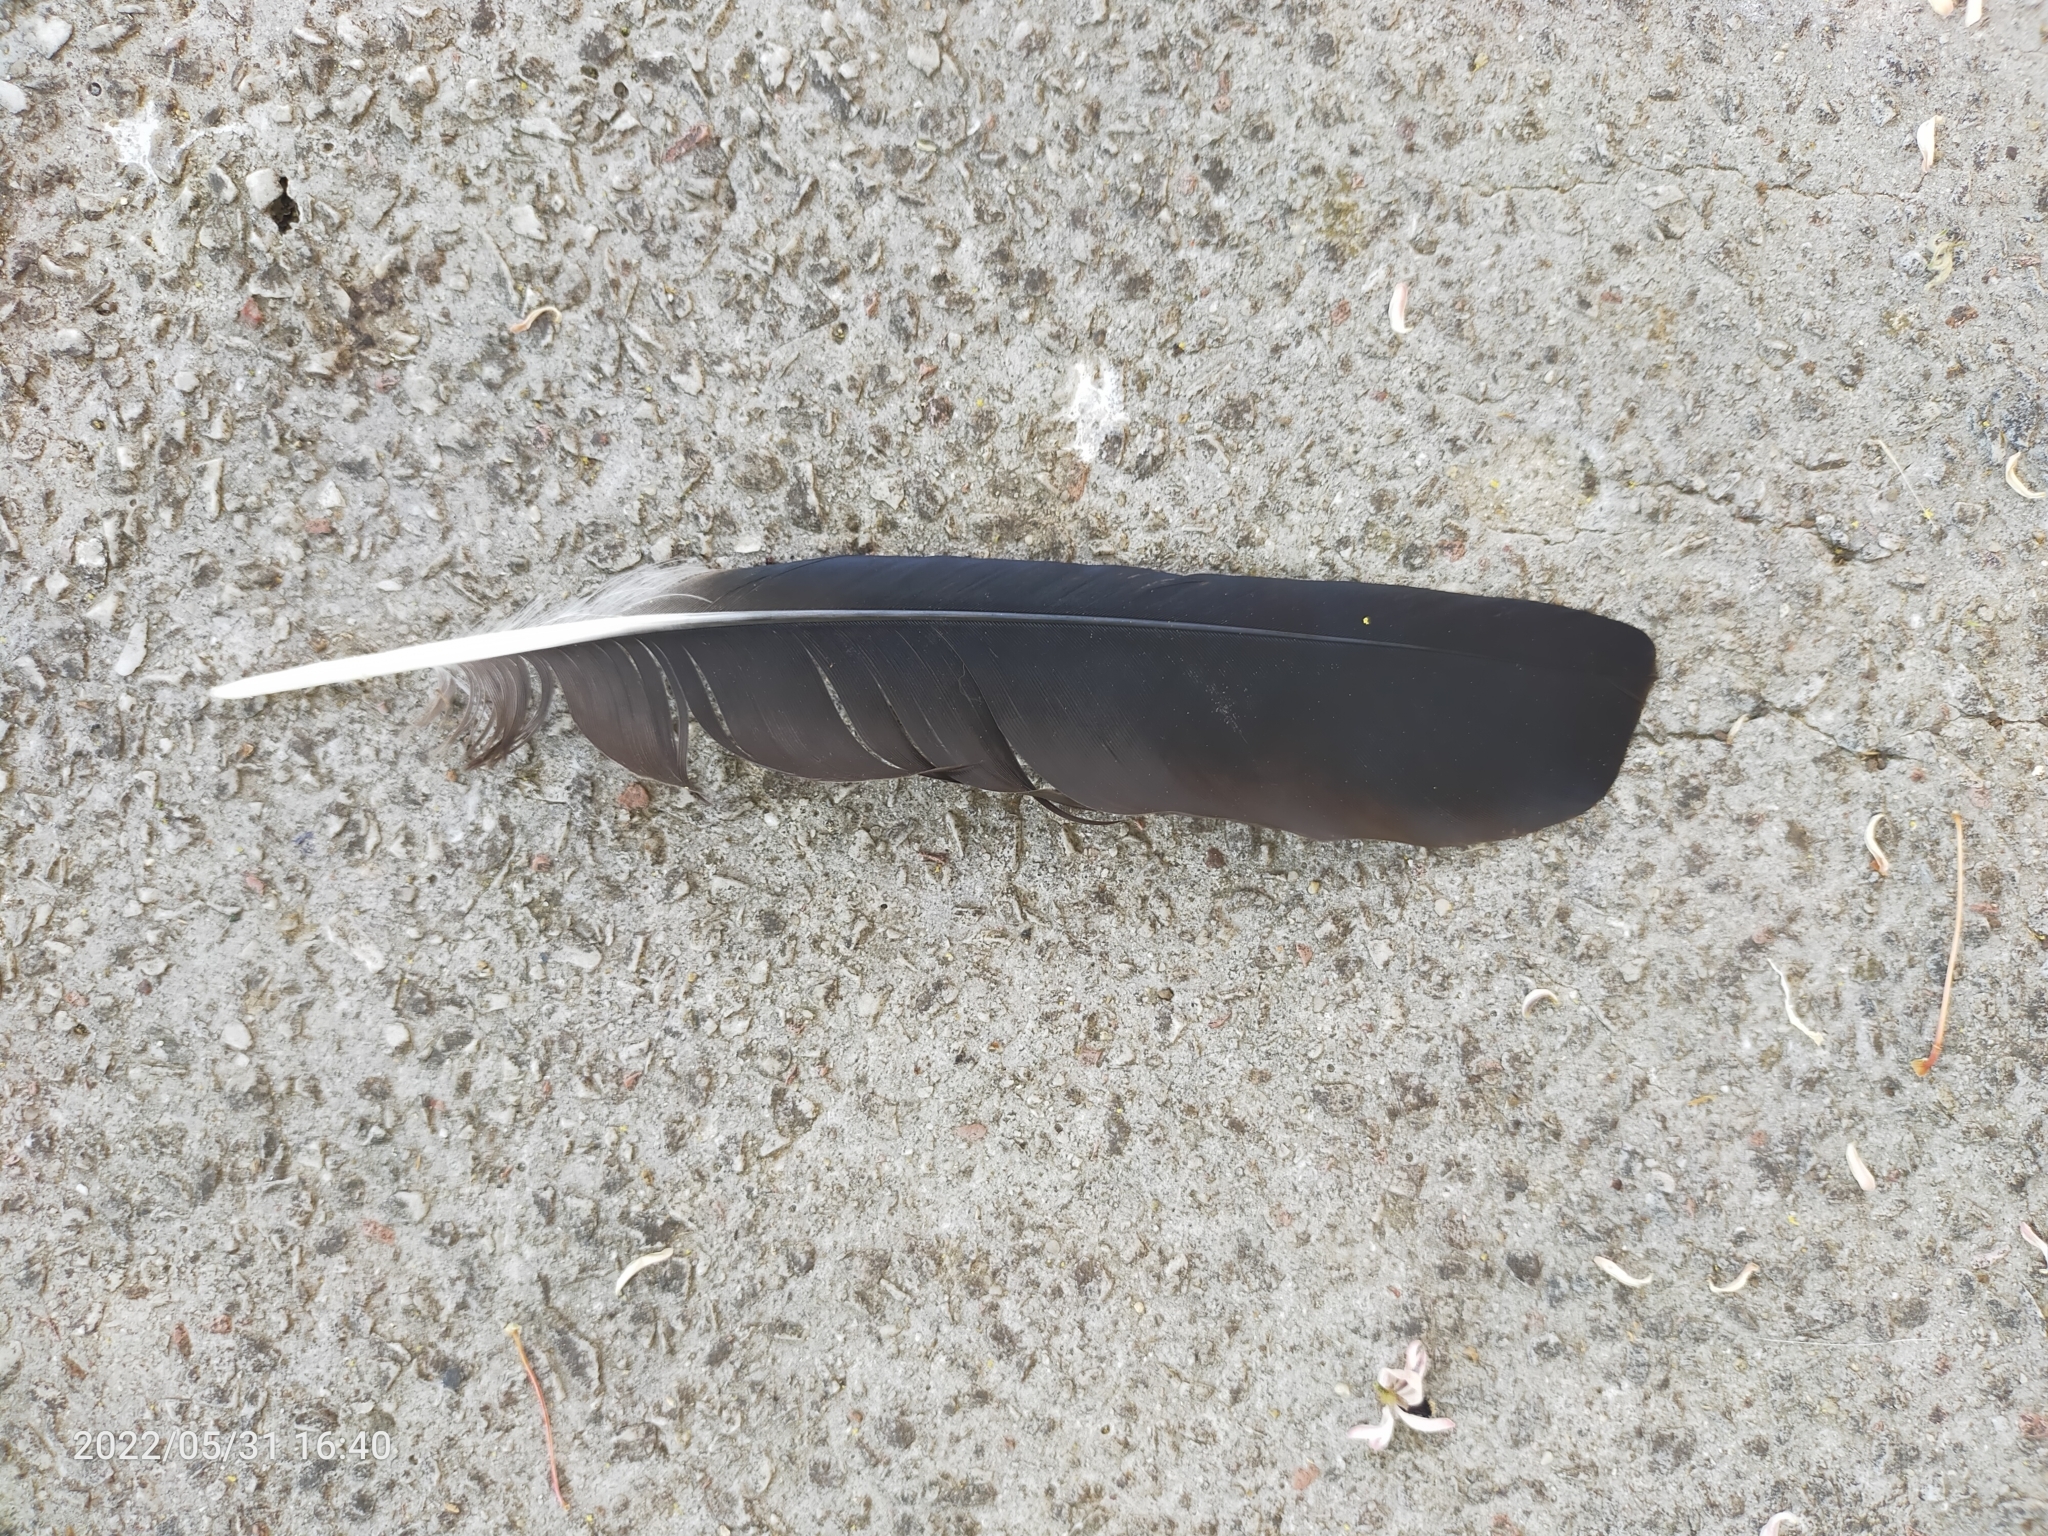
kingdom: Animalia
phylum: Chordata
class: Aves
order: Passeriformes
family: Corvidae
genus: Corvus
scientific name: Corvus
